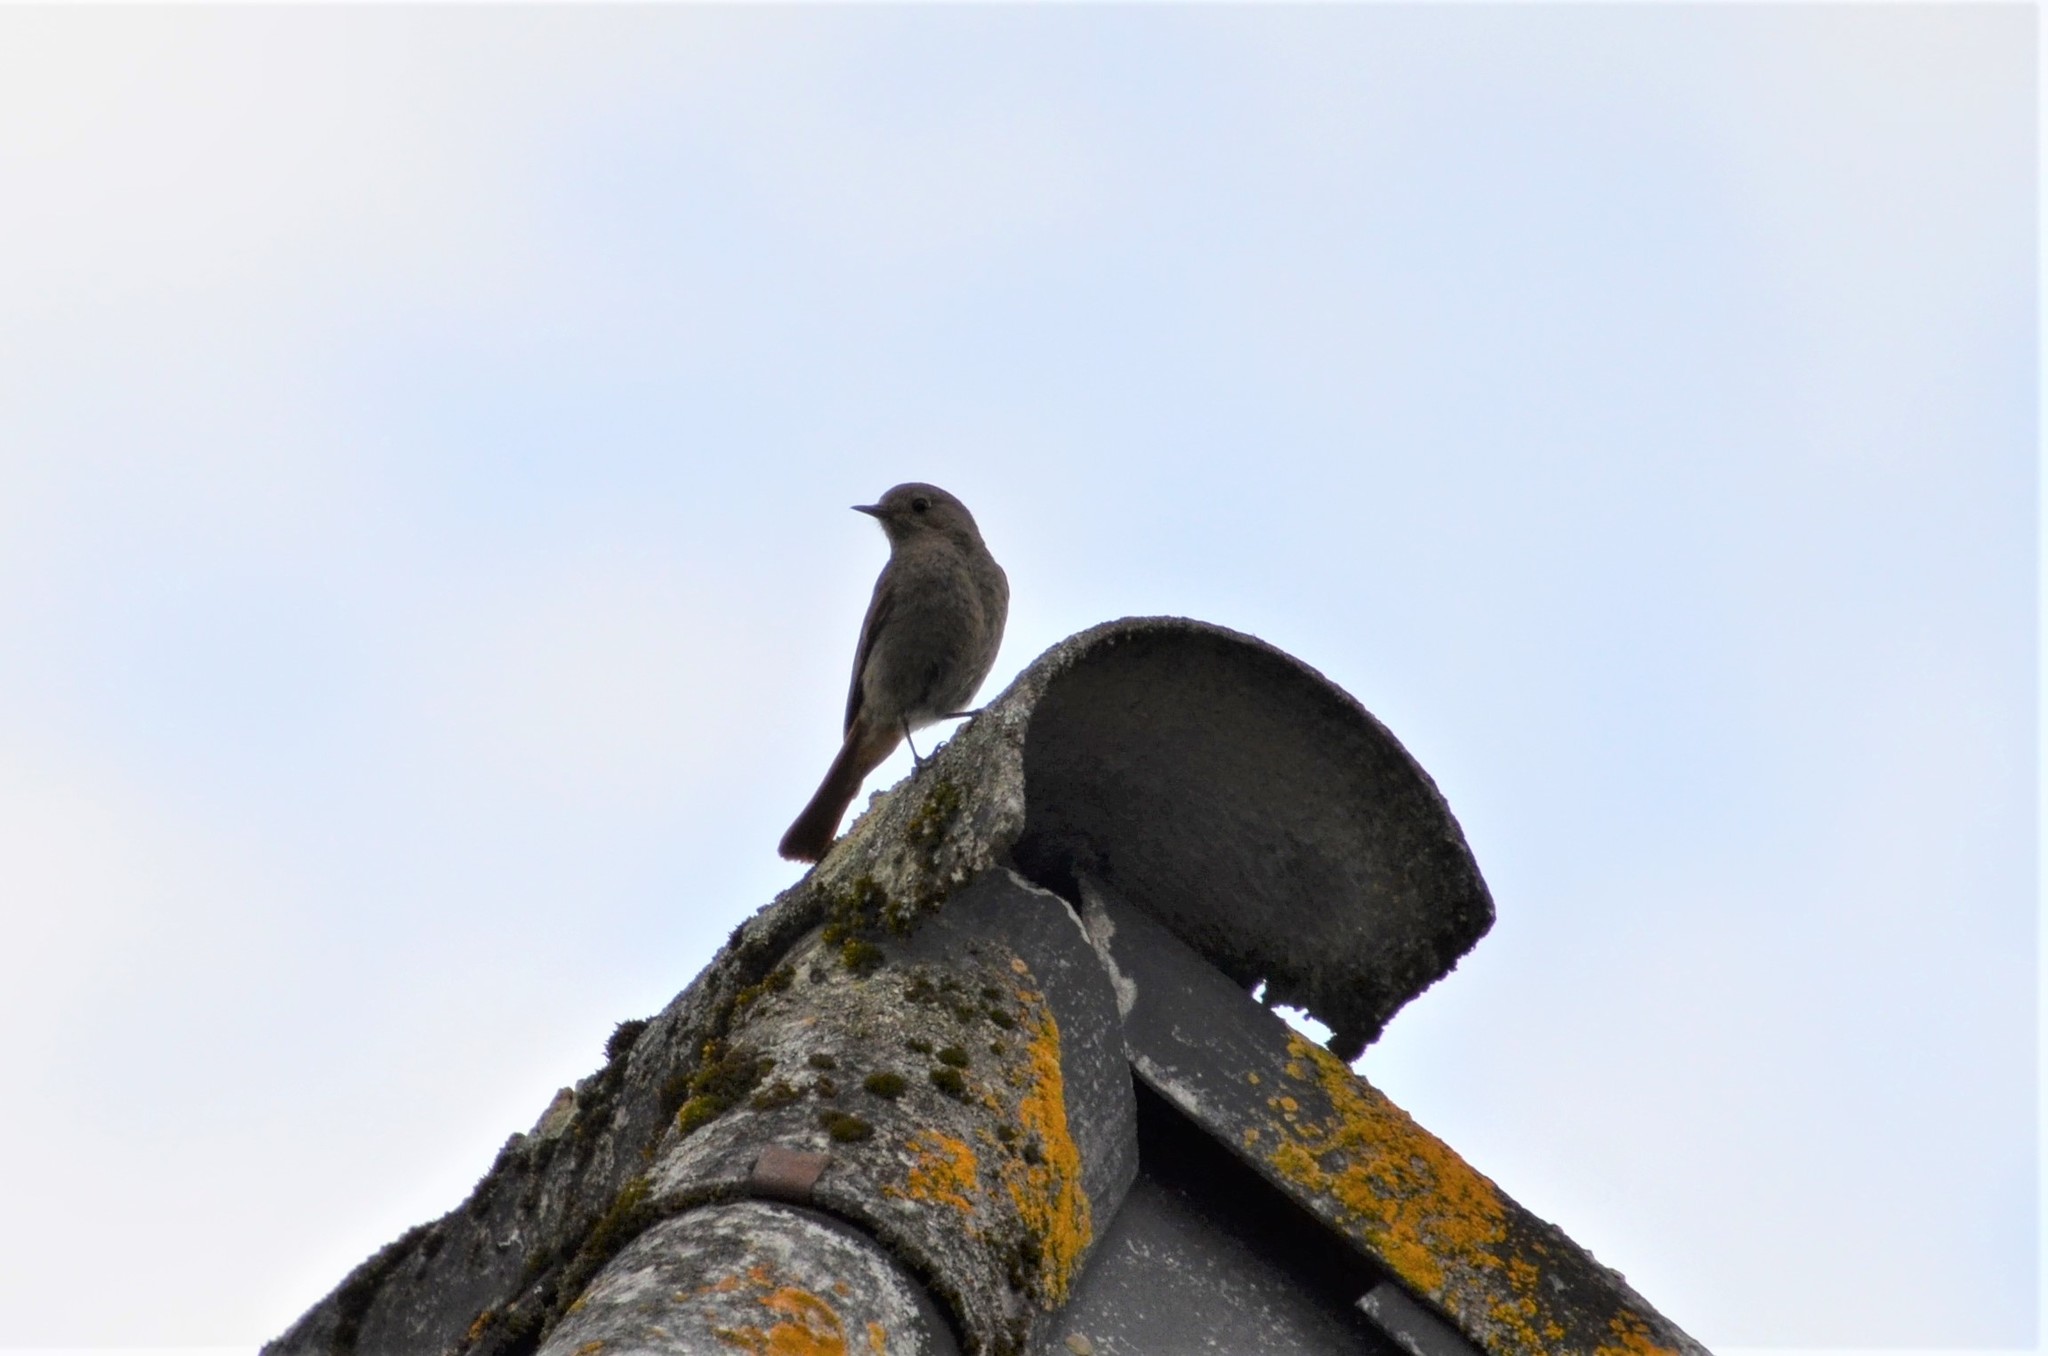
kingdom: Animalia
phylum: Chordata
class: Aves
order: Passeriformes
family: Muscicapidae
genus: Phoenicurus
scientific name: Phoenicurus ochruros
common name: Black redstart
